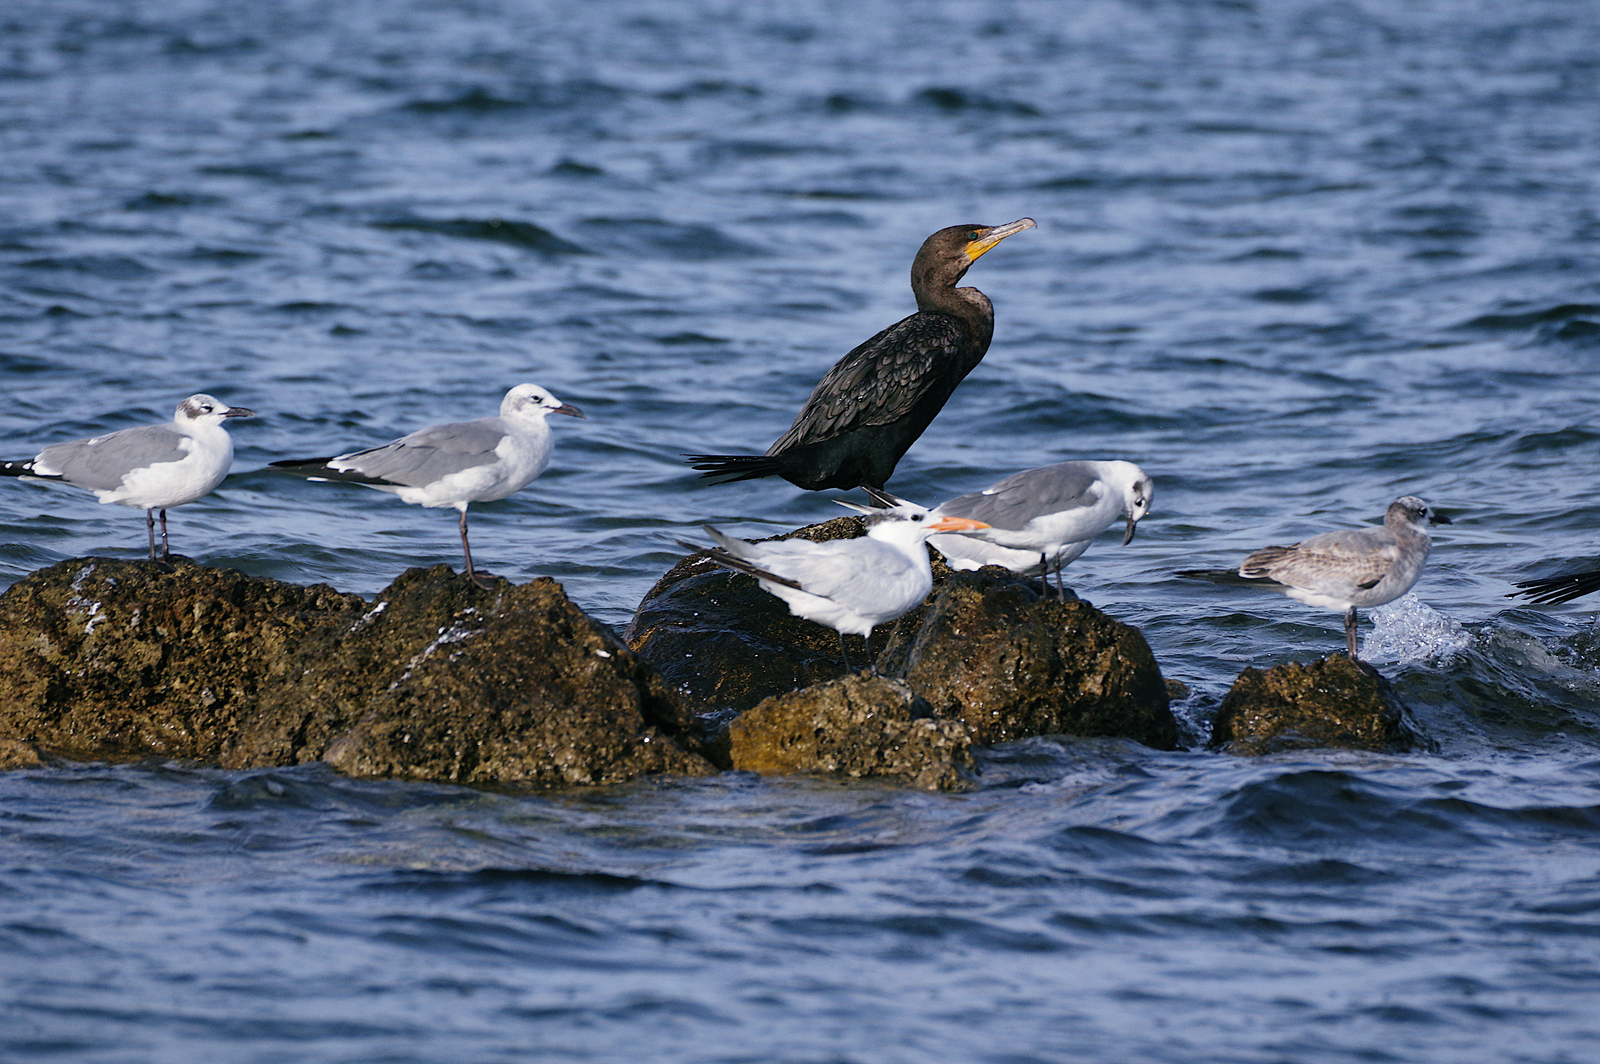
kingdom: Animalia
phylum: Chordata
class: Aves
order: Suliformes
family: Phalacrocoracidae
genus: Phalacrocorax
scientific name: Phalacrocorax auritus
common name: Double-crested cormorant
